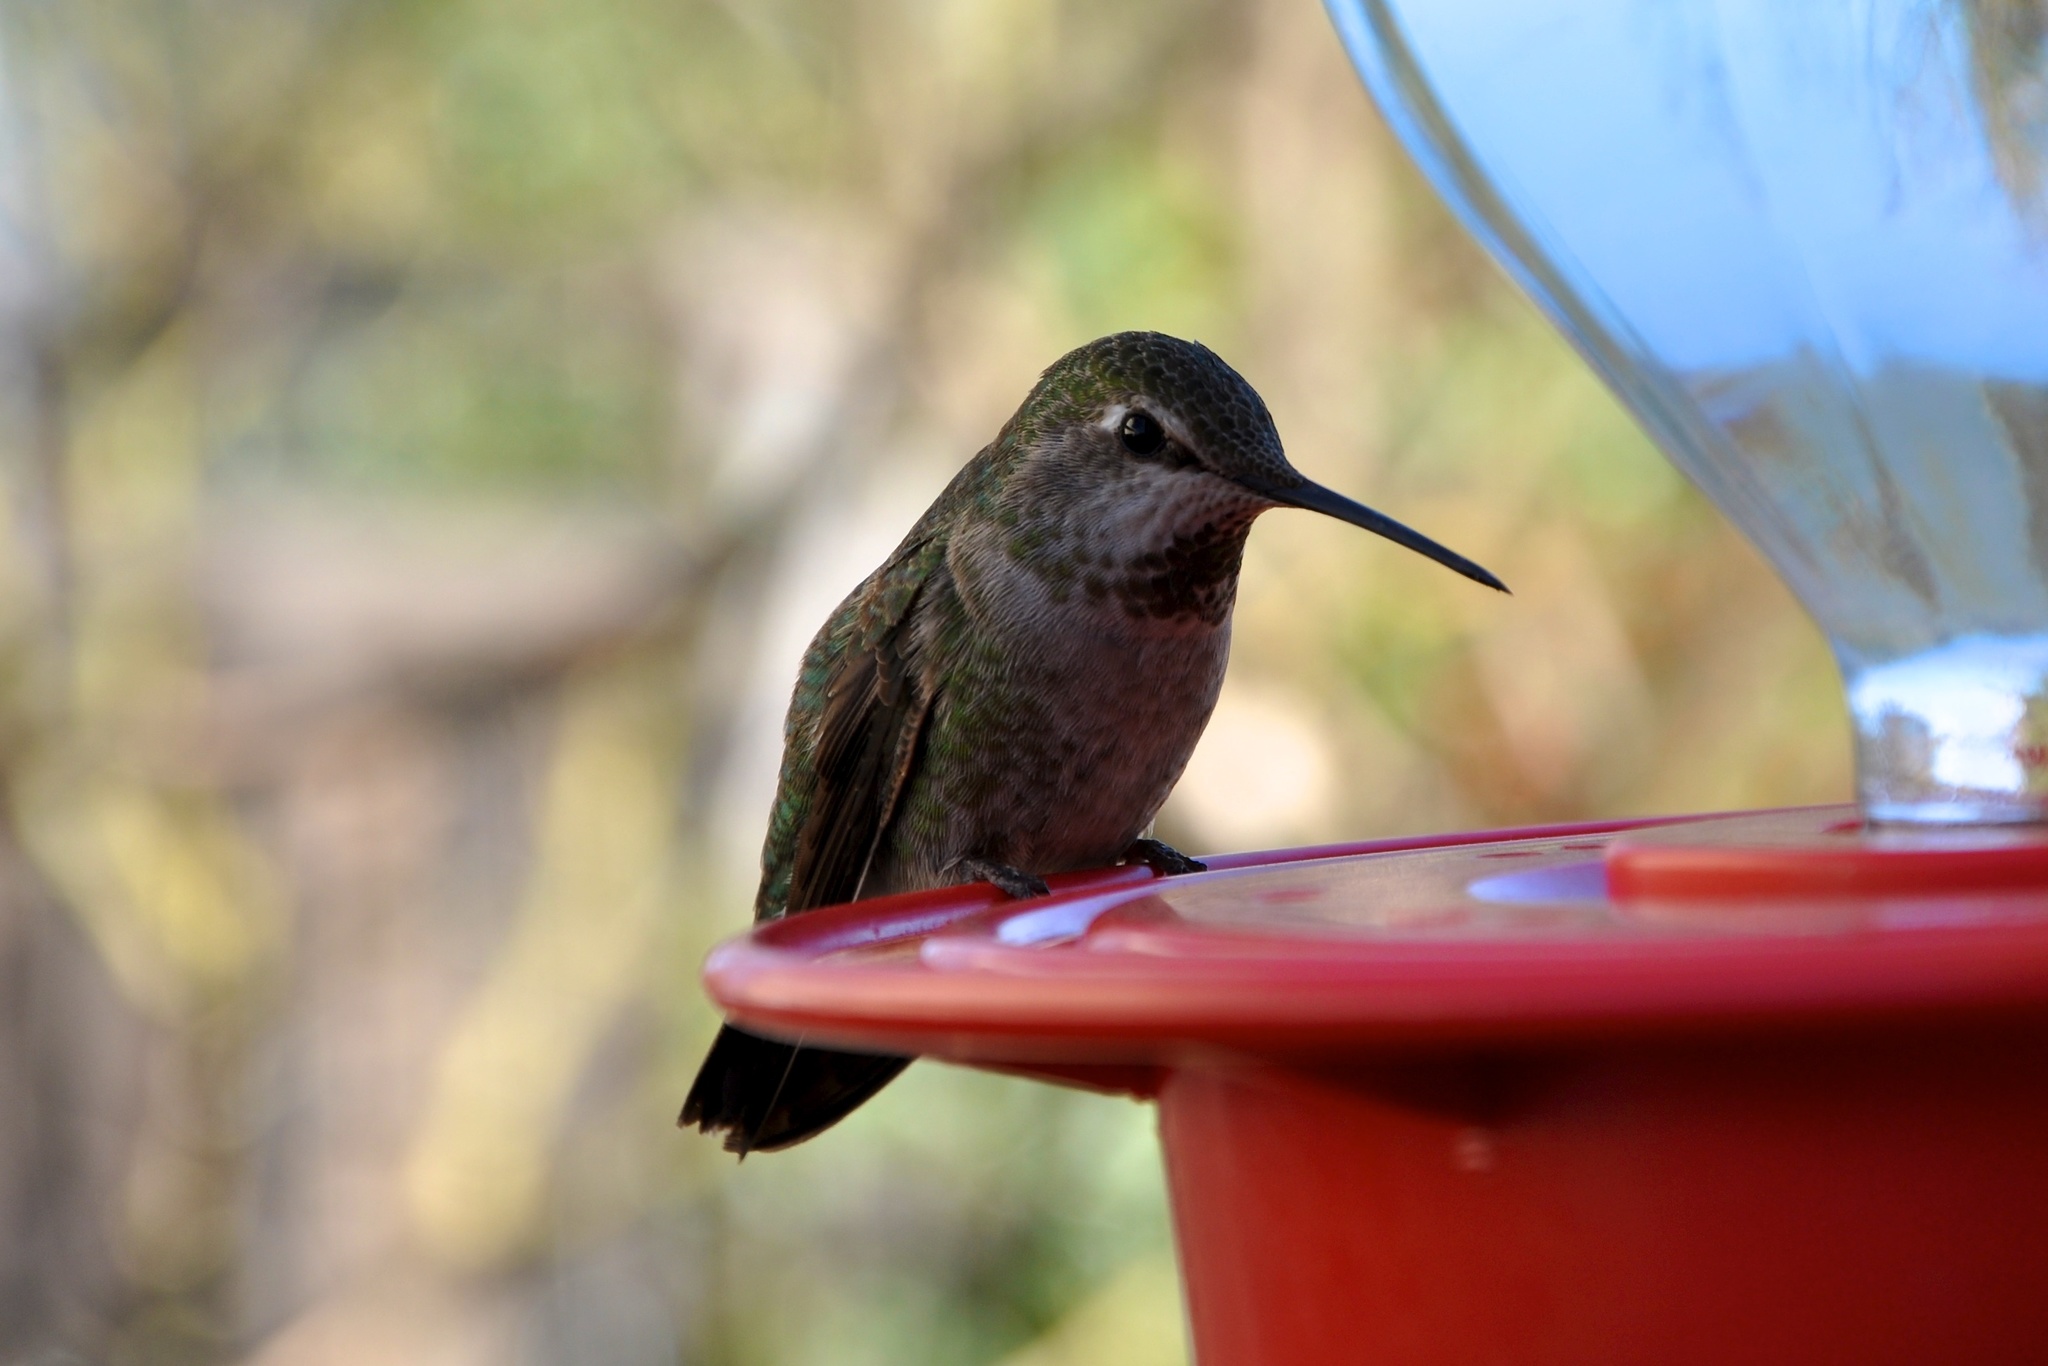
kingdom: Animalia
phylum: Chordata
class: Aves
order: Apodiformes
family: Trochilidae
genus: Calypte
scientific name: Calypte anna
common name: Anna's hummingbird
